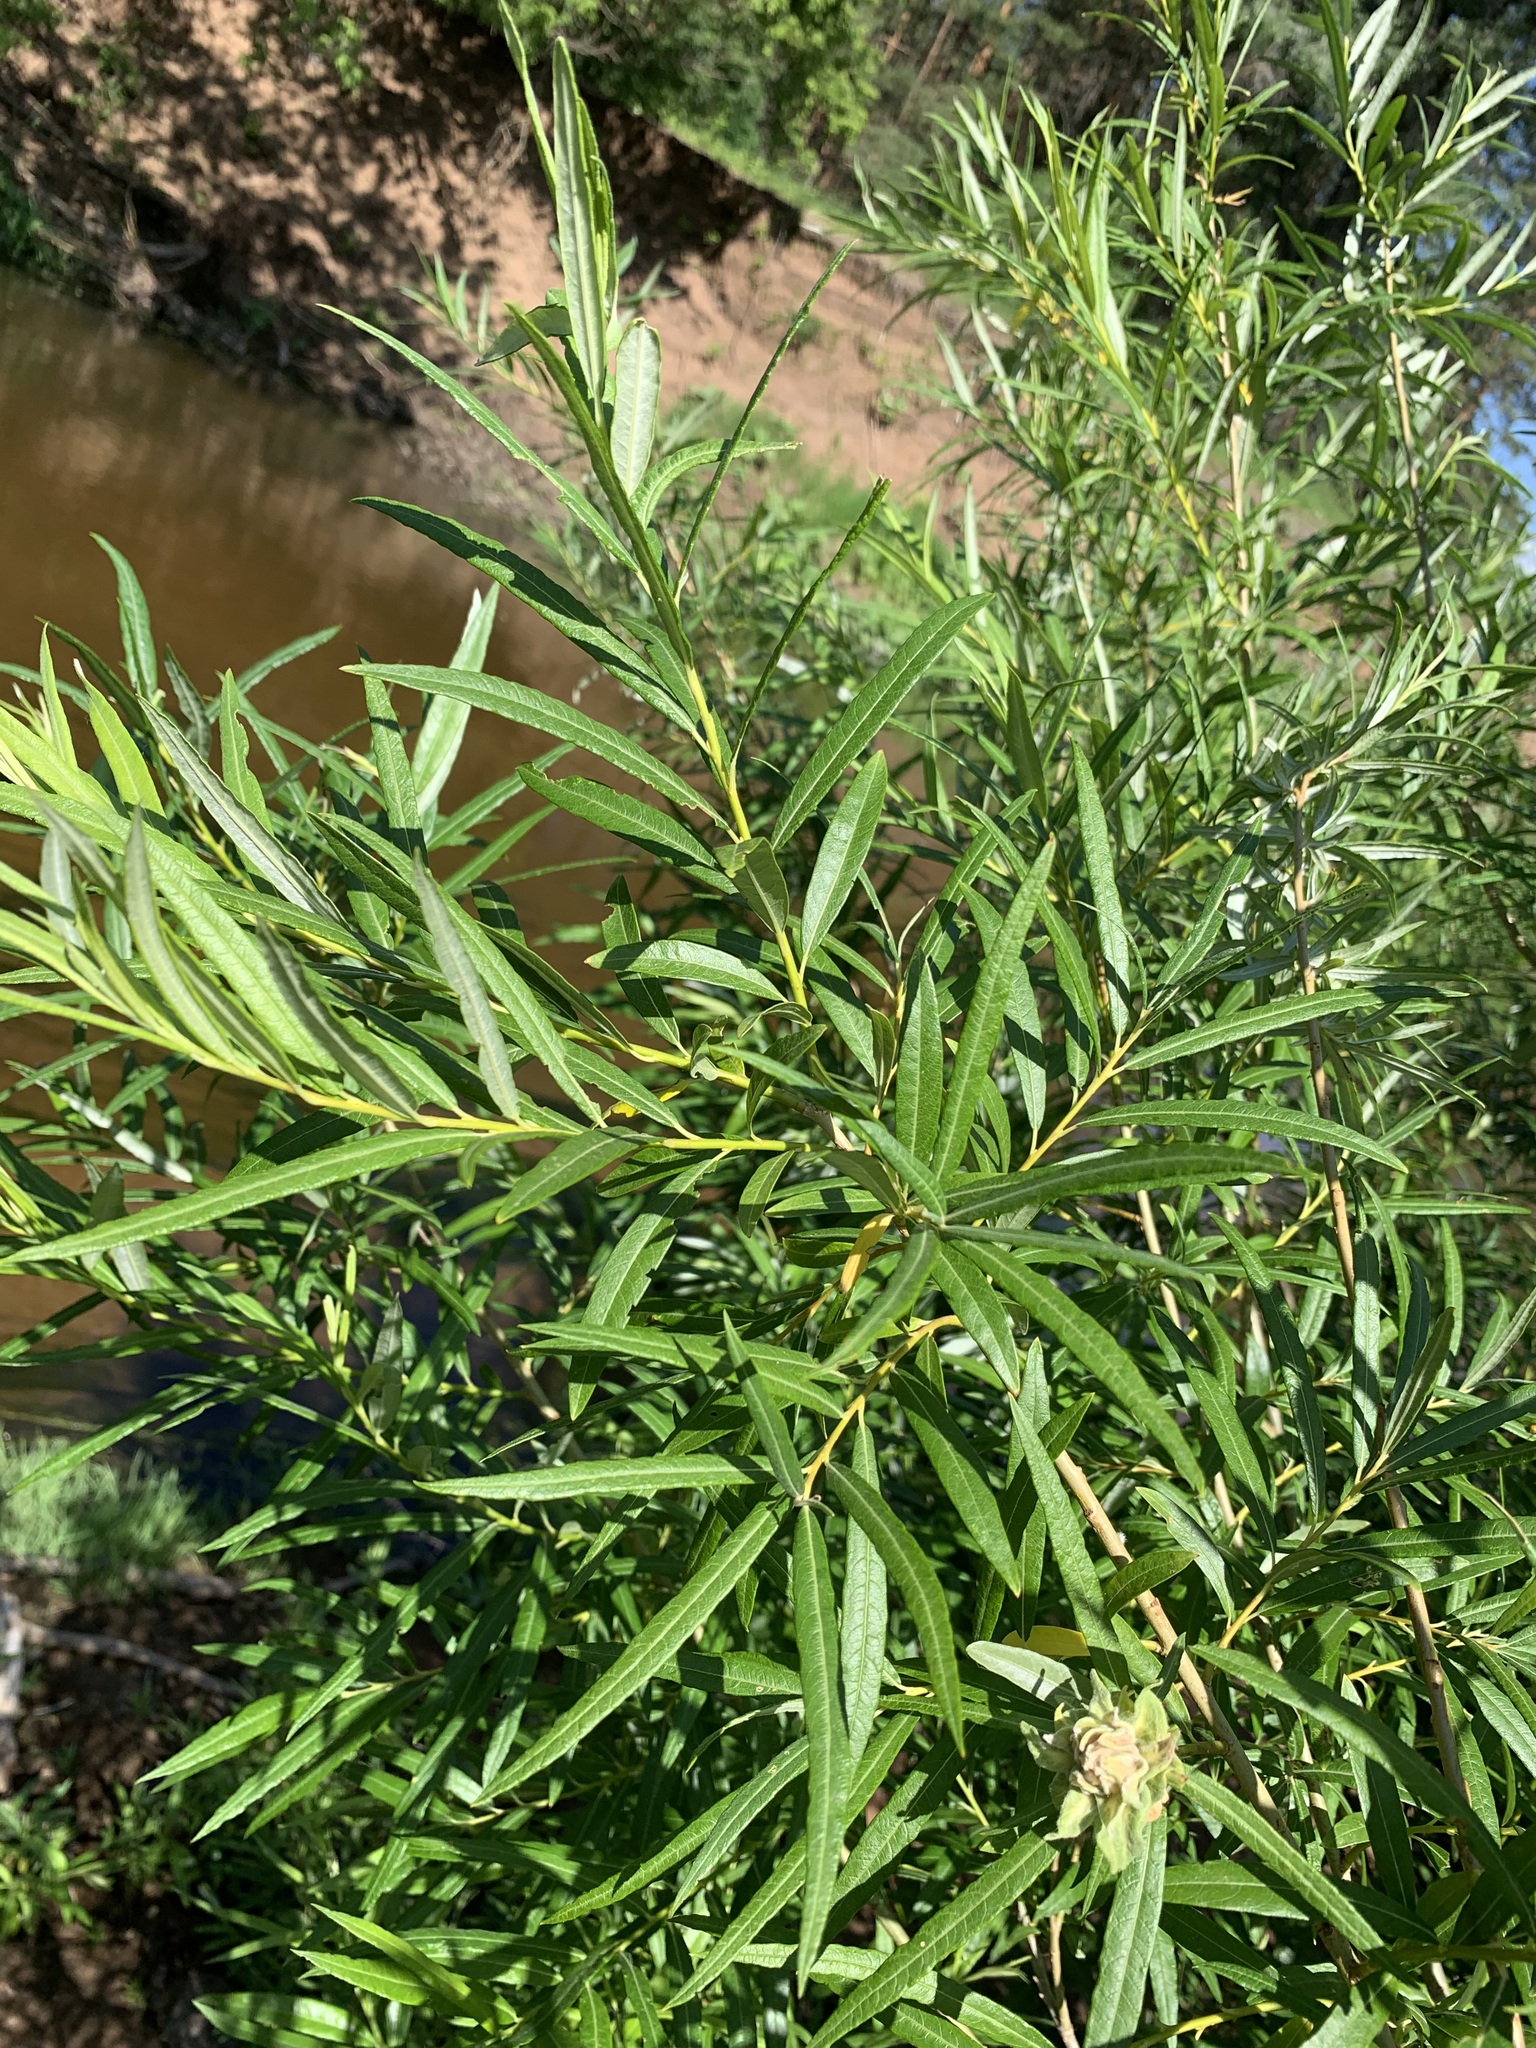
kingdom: Plantae
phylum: Tracheophyta
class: Magnoliopsida
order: Malpighiales
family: Salicaceae
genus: Salix
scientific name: Salix viminalis
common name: Osier
